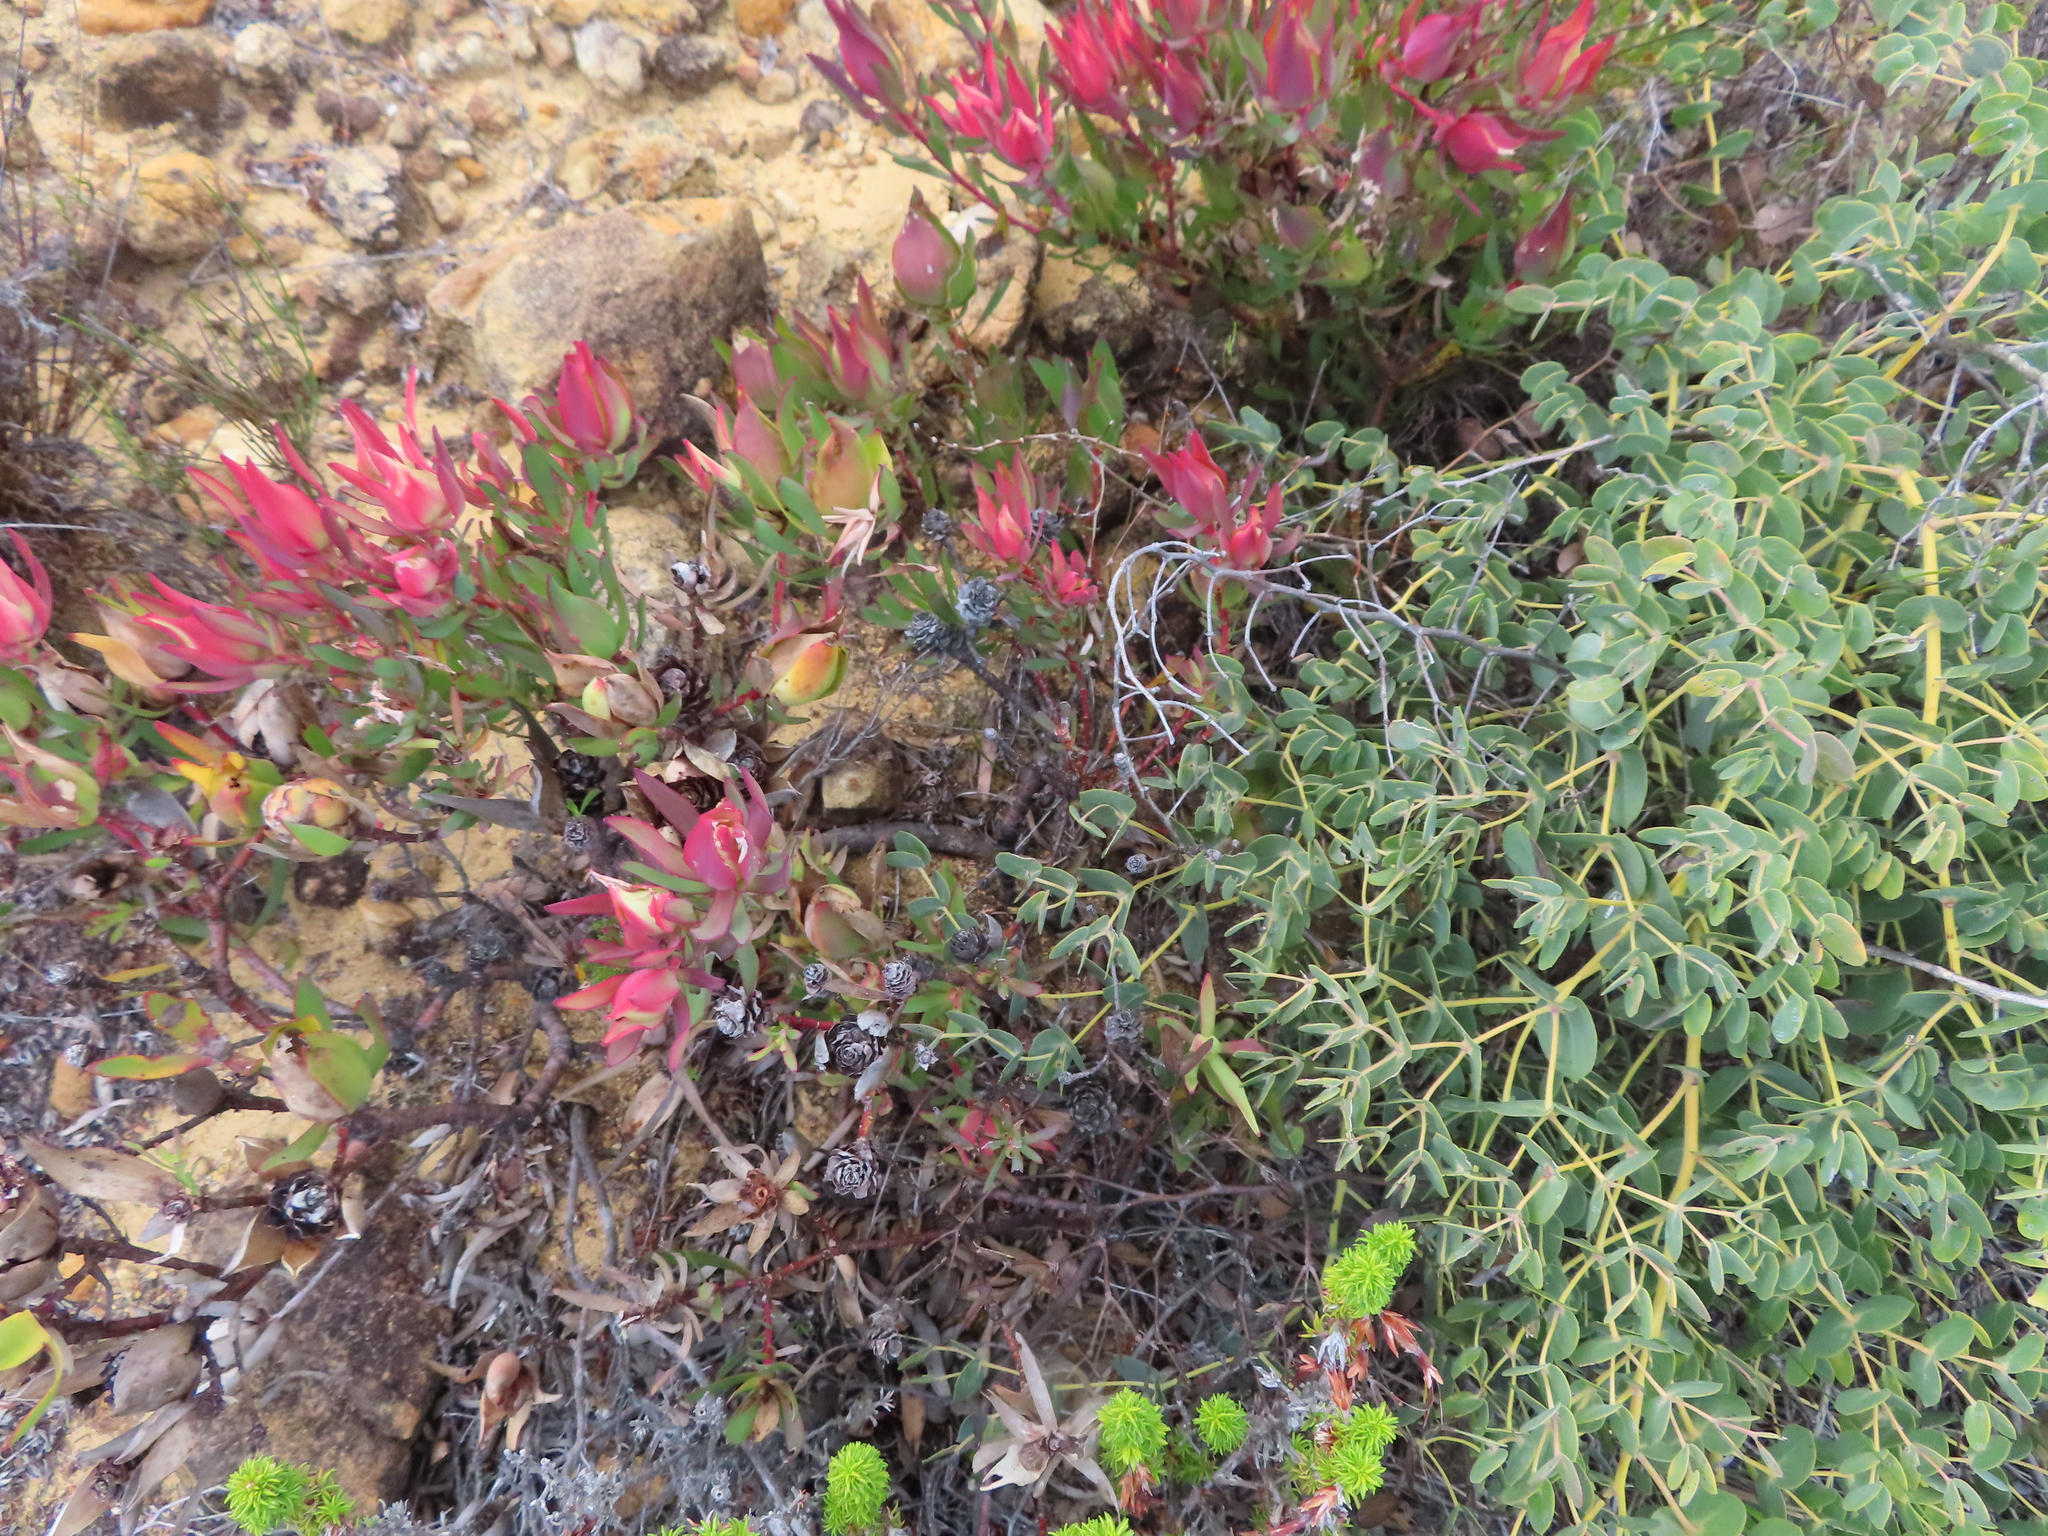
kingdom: Plantae
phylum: Tracheophyta
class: Magnoliopsida
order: Proteales
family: Proteaceae
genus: Leucadendron
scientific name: Leucadendron salignum
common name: Common sunshine conebush
